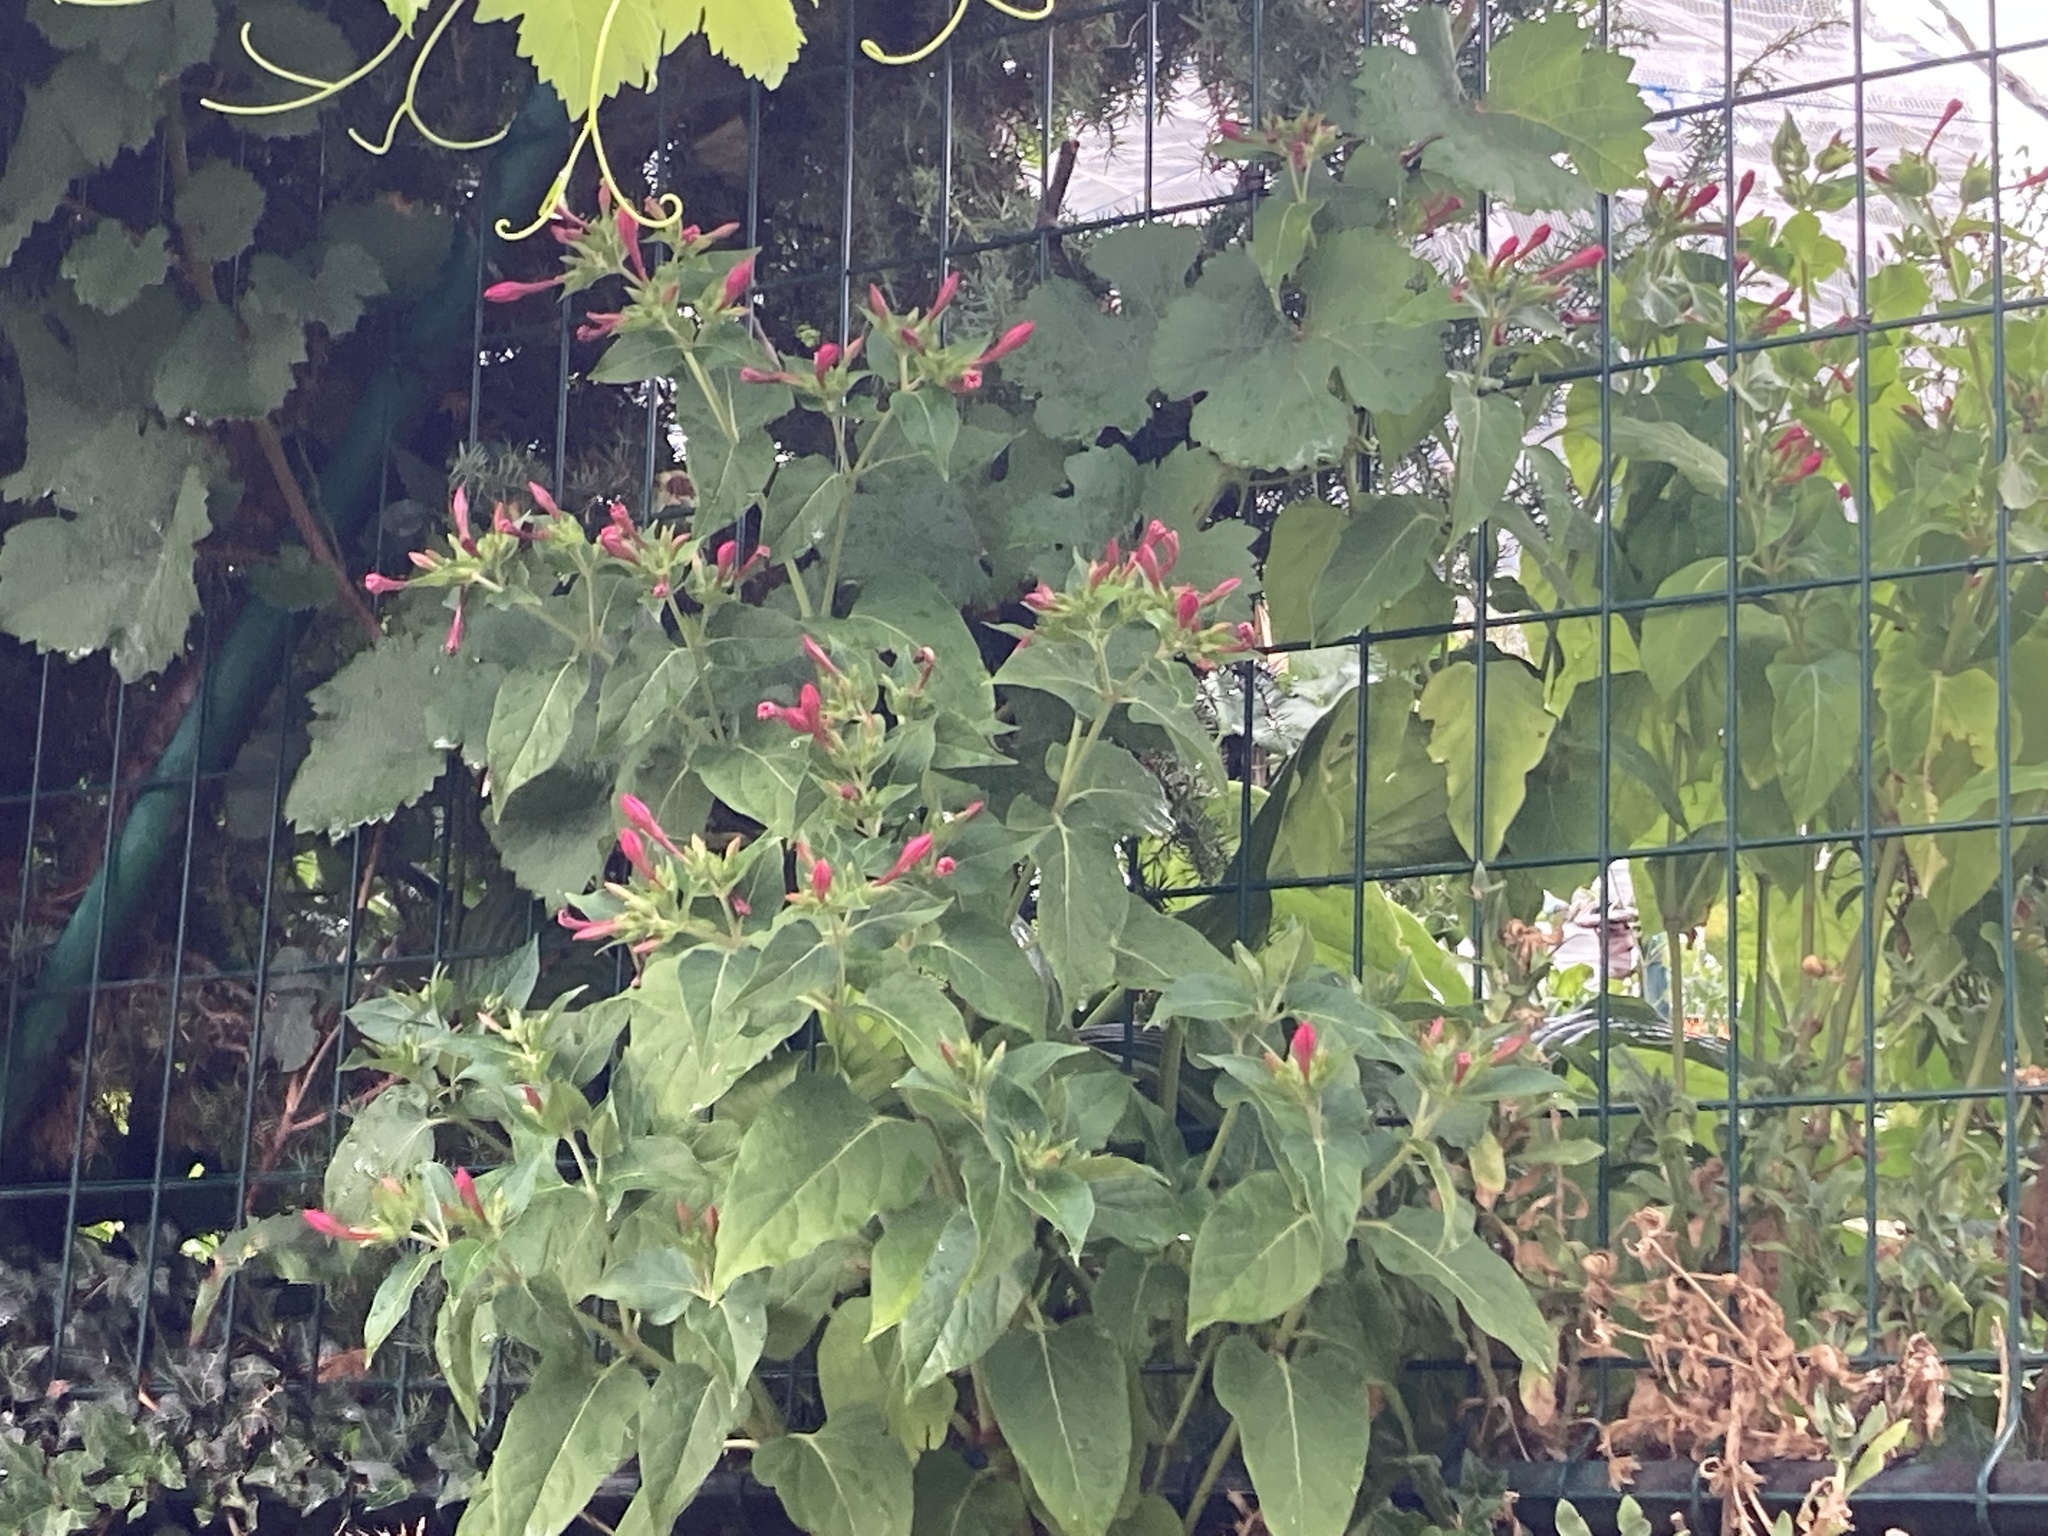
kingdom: Plantae
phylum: Tracheophyta
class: Magnoliopsida
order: Caryophyllales
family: Nyctaginaceae
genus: Mirabilis
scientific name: Mirabilis jalapa
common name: Marvel-of-peru
